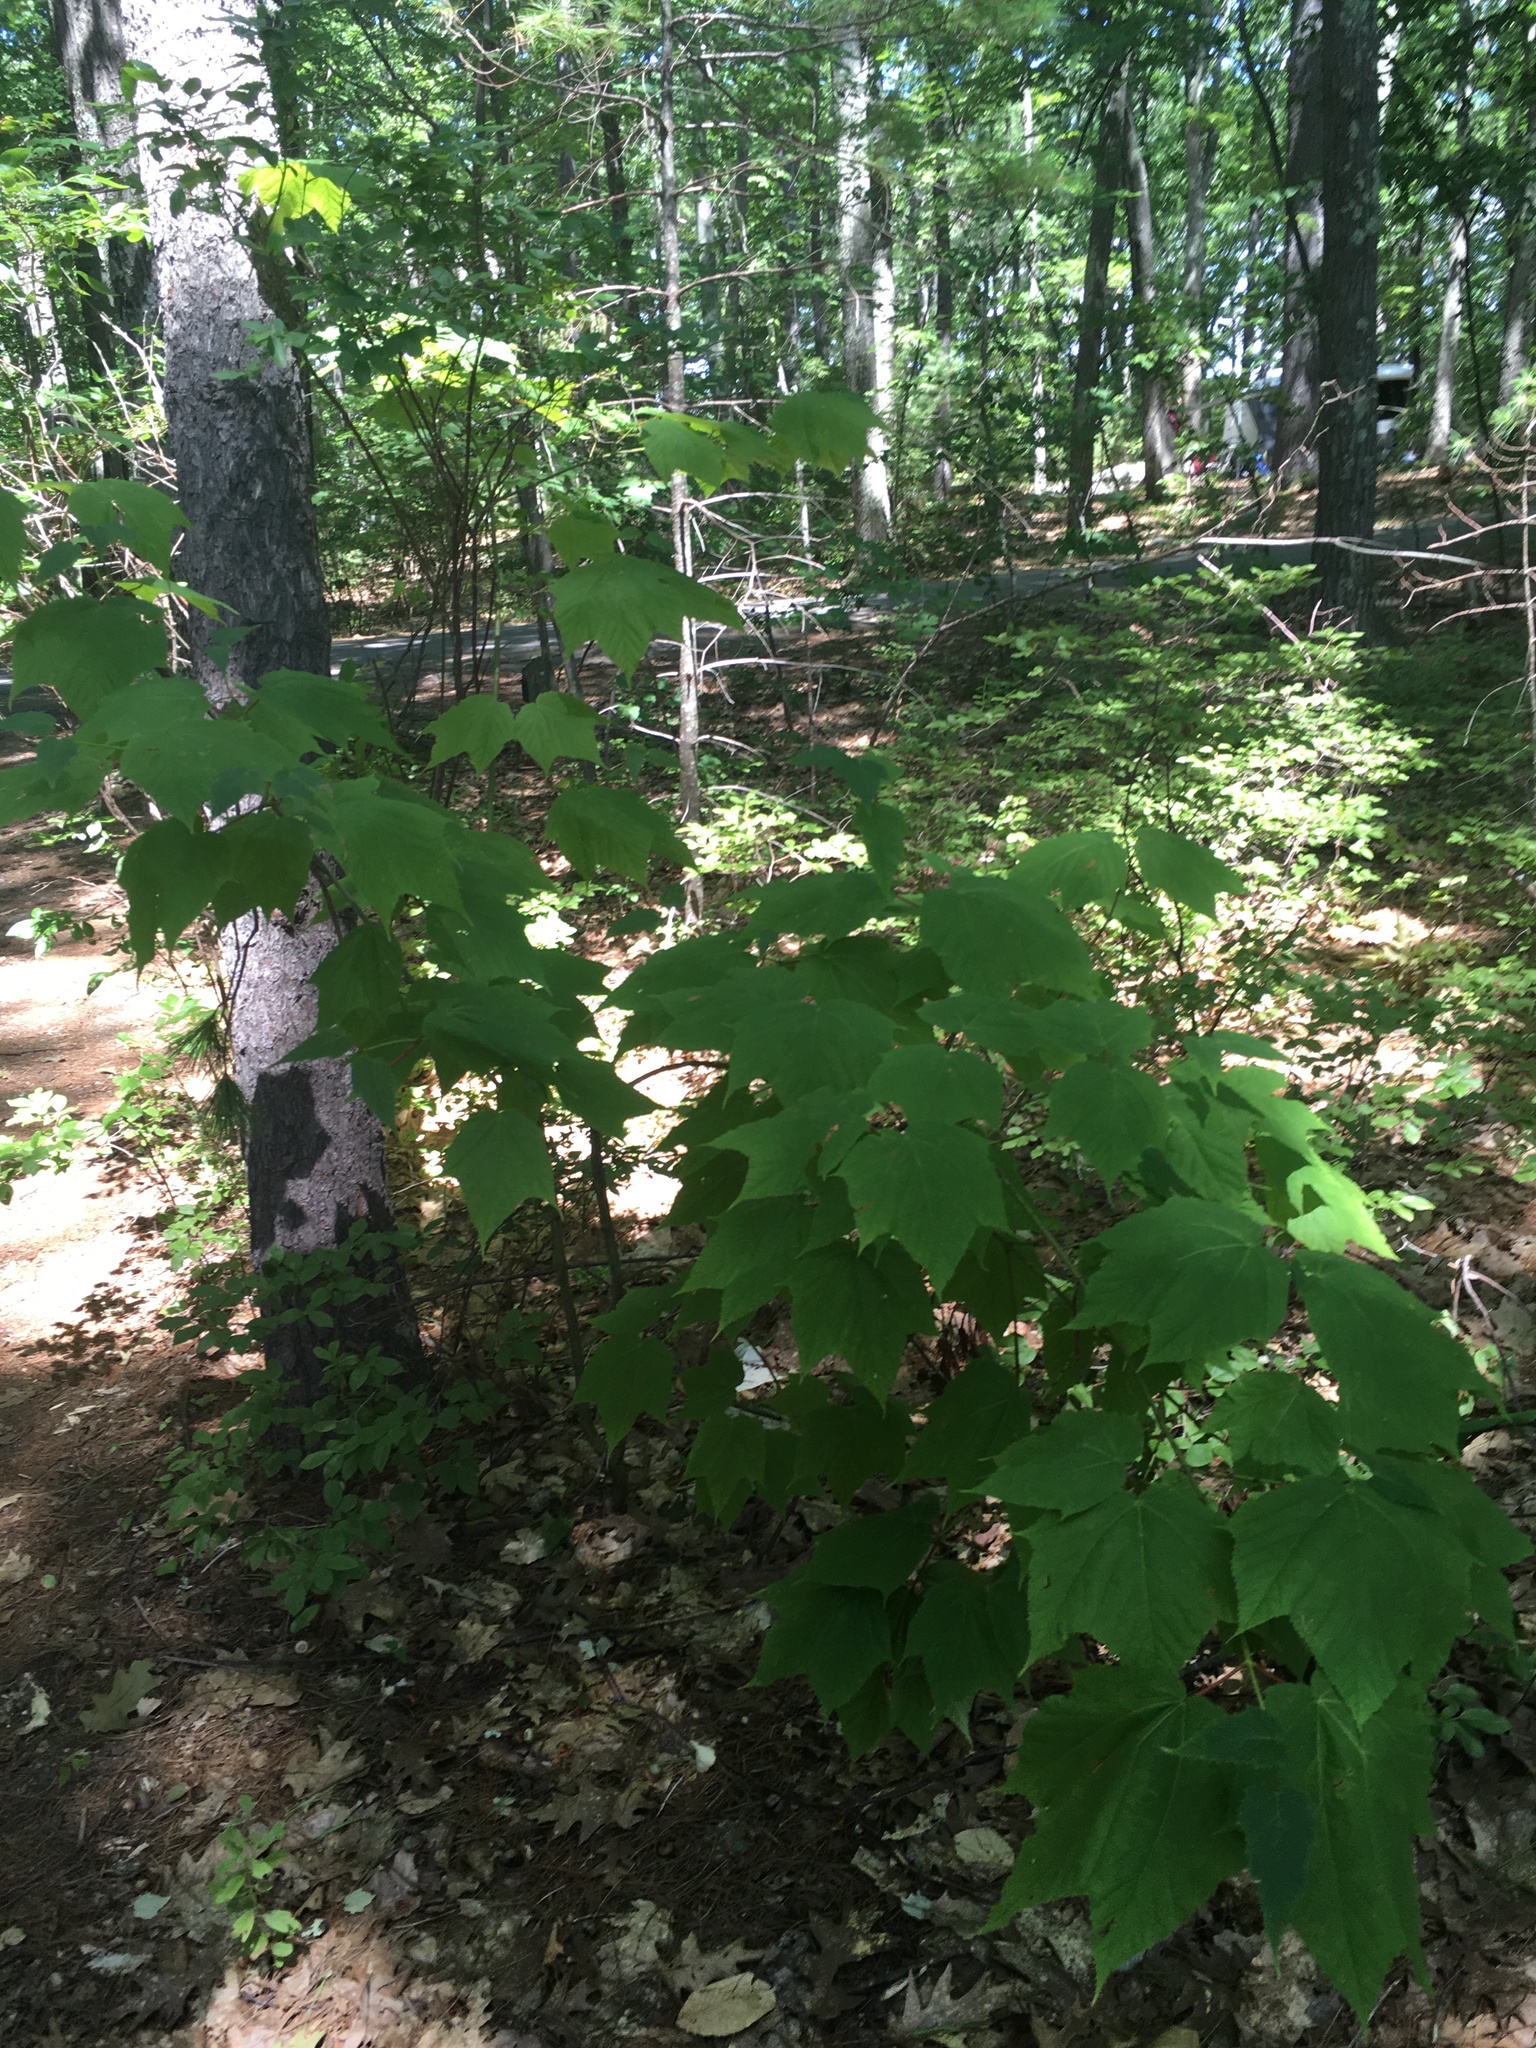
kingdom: Plantae
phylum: Tracheophyta
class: Magnoliopsida
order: Sapindales
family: Sapindaceae
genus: Acer
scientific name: Acer pensylvanicum
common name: Moosewood
